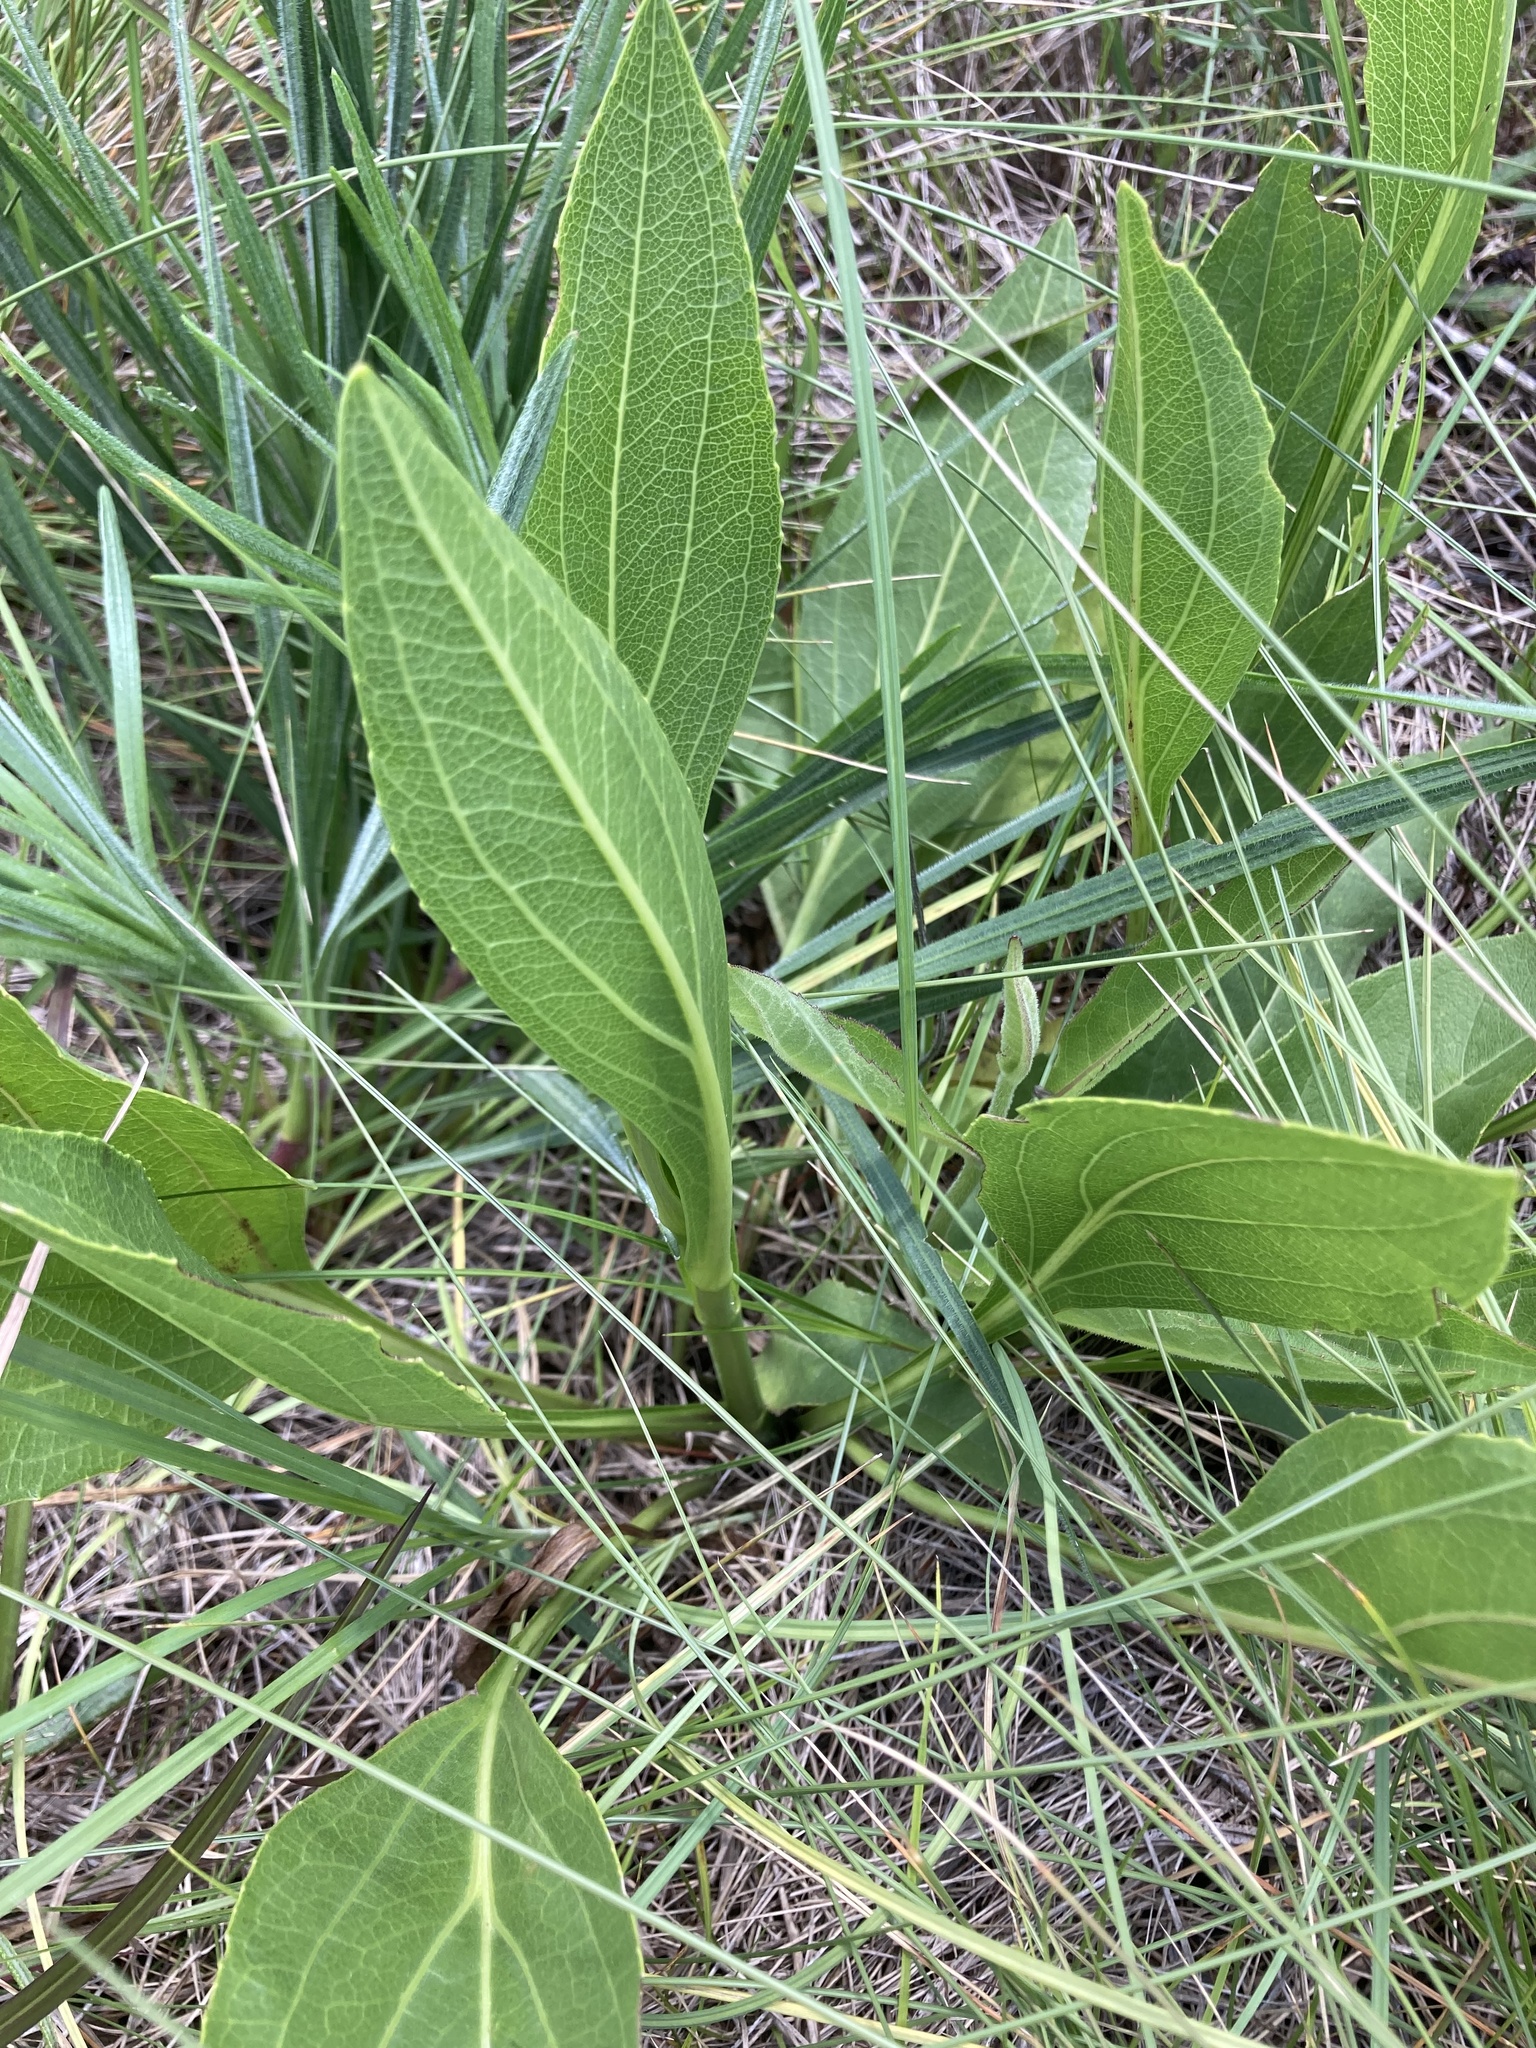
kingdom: Plantae
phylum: Tracheophyta
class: Magnoliopsida
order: Asterales
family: Asteraceae
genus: Rudbeckia
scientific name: Rudbeckia texana
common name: Texas coneflower
